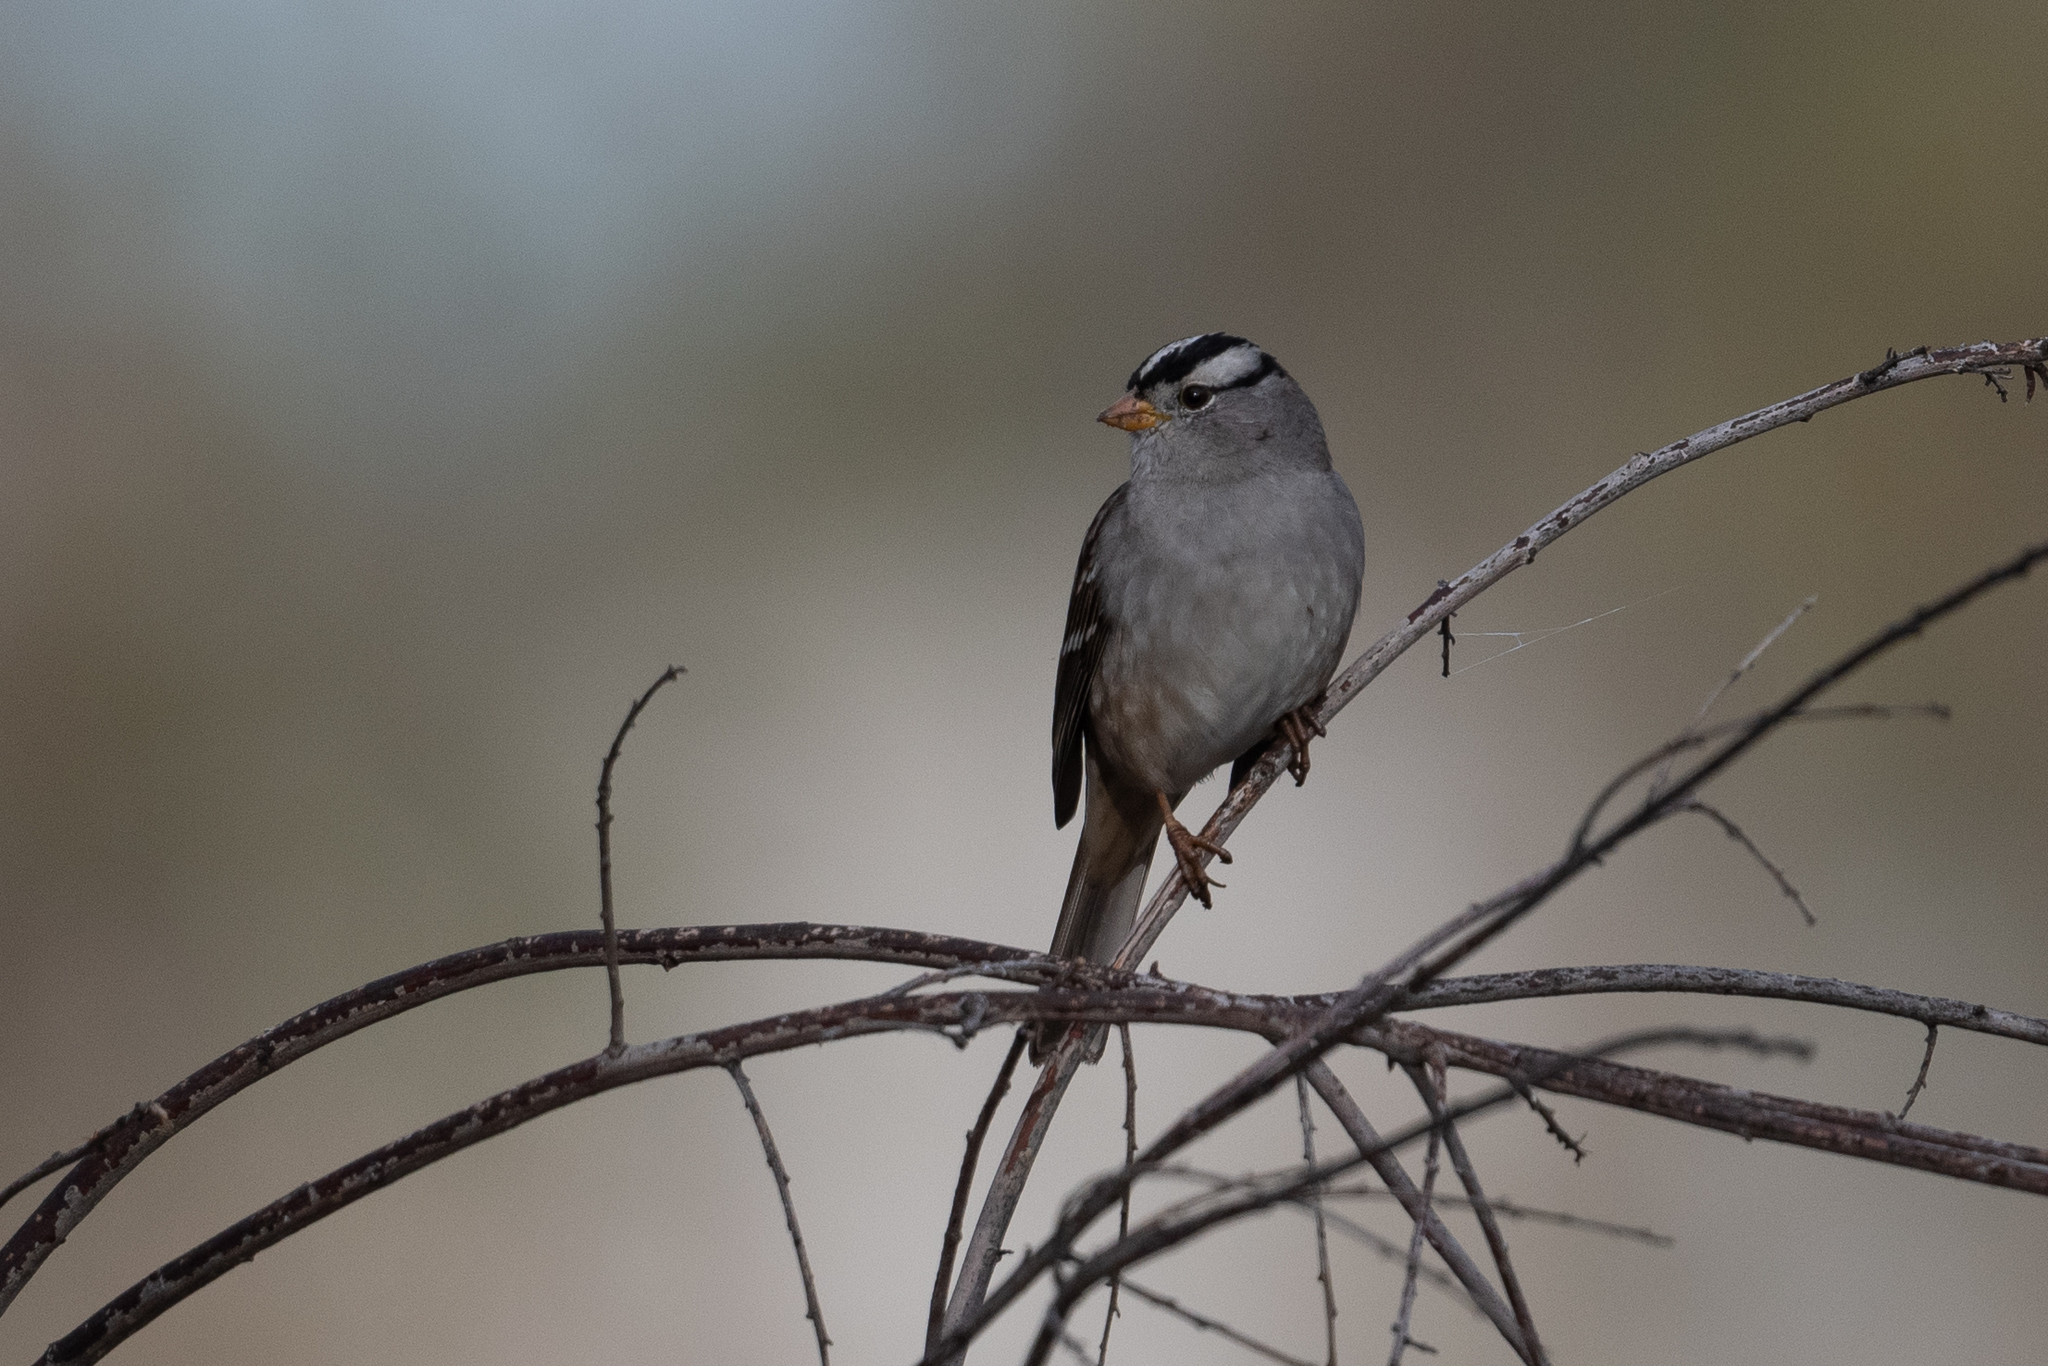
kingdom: Animalia
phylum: Chordata
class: Aves
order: Passeriformes
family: Passerellidae
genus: Zonotrichia
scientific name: Zonotrichia leucophrys
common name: White-crowned sparrow
